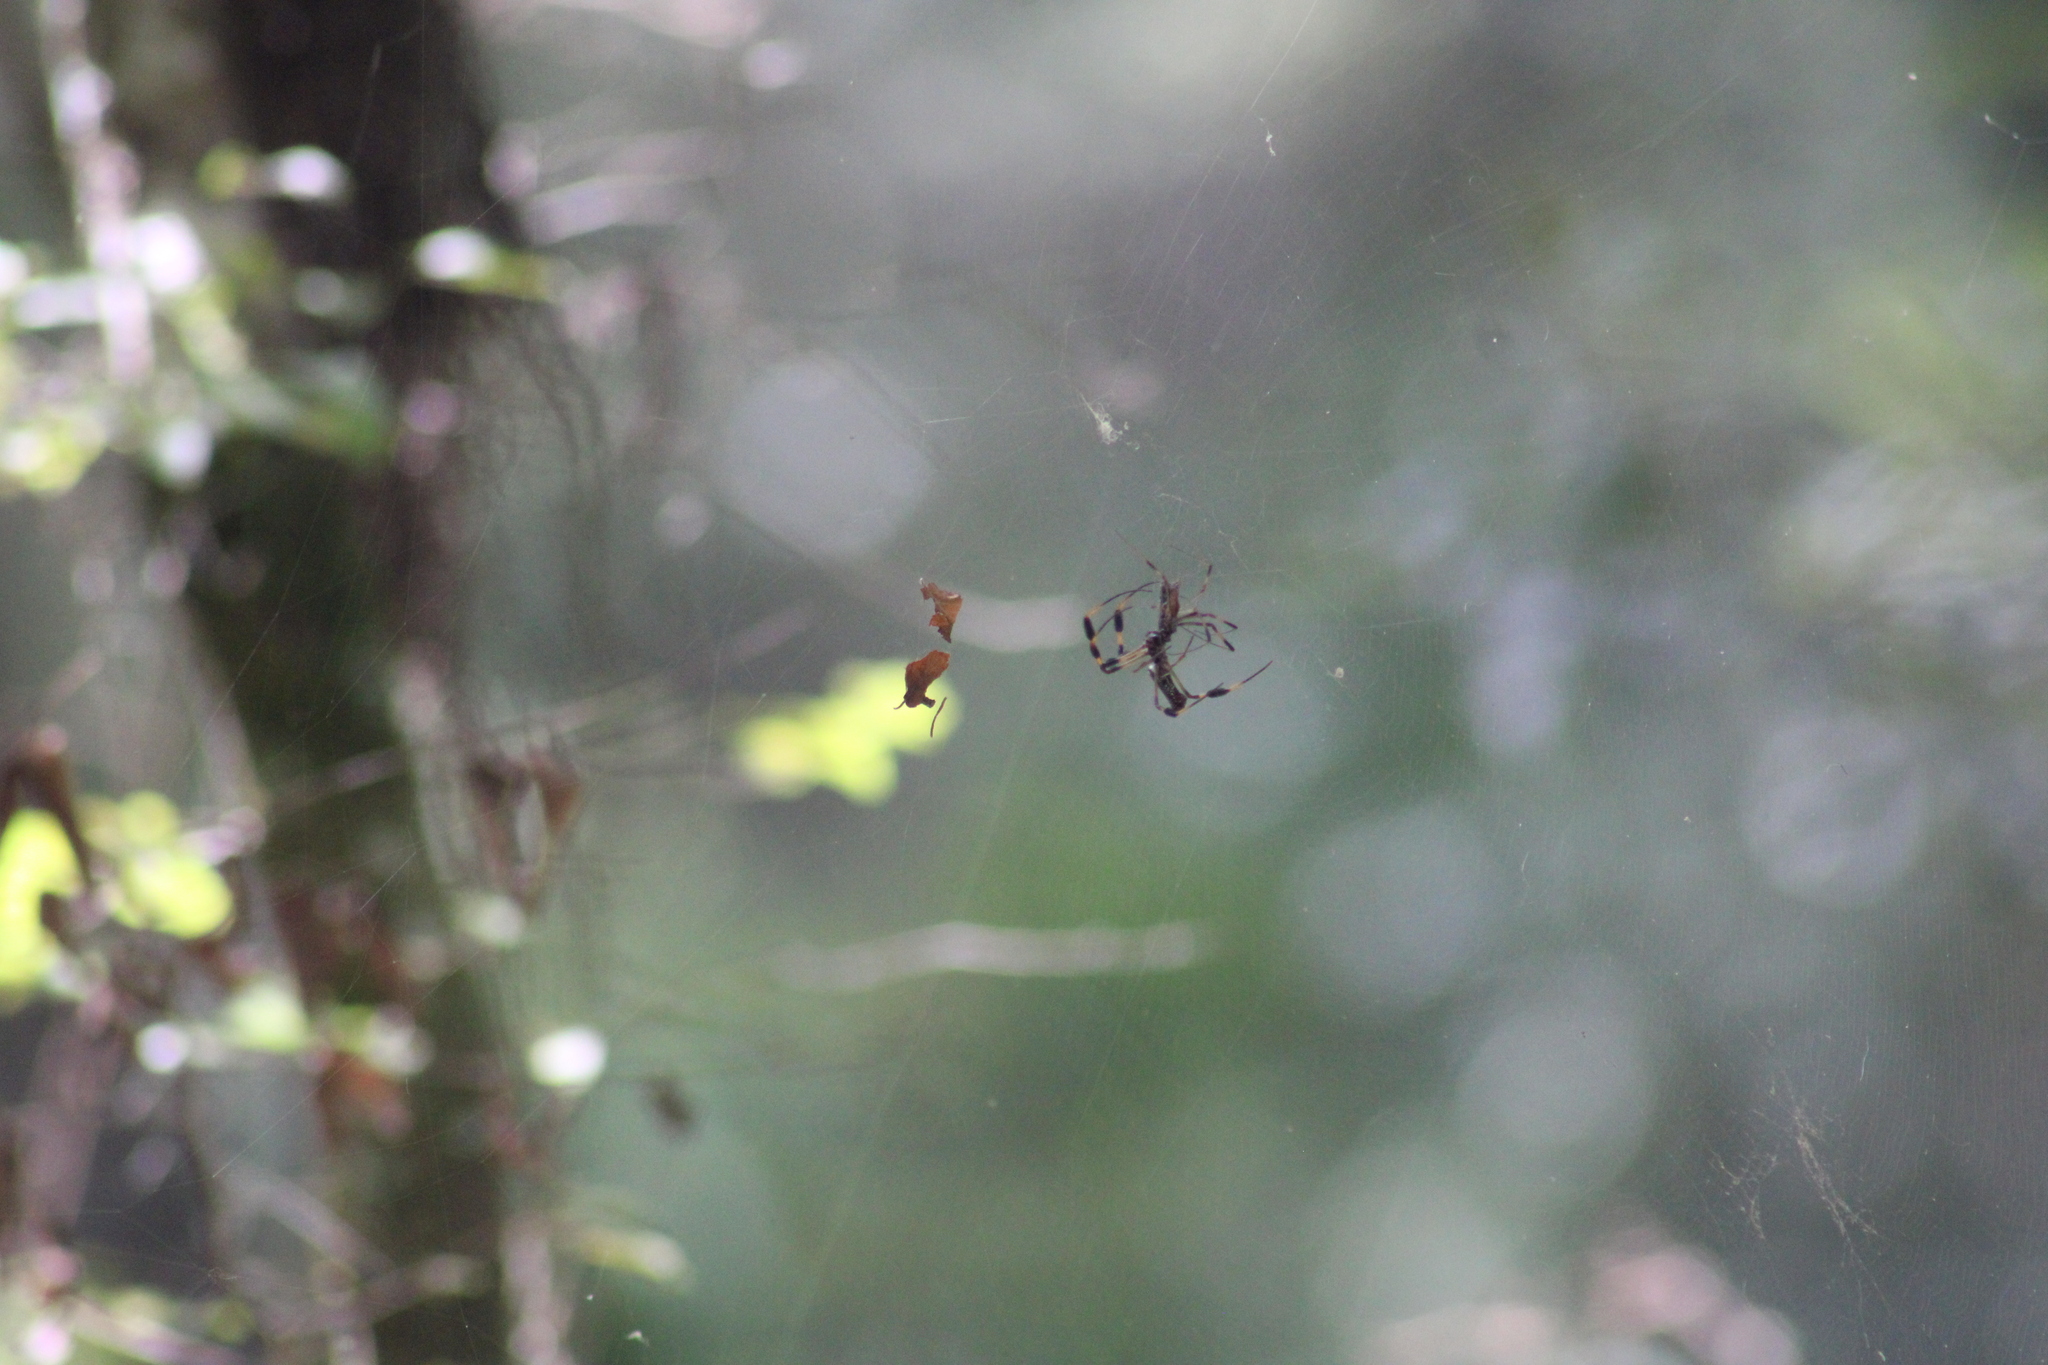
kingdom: Animalia
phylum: Arthropoda
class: Arachnida
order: Araneae
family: Araneidae
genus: Trichonephila
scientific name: Trichonephila clavipes
